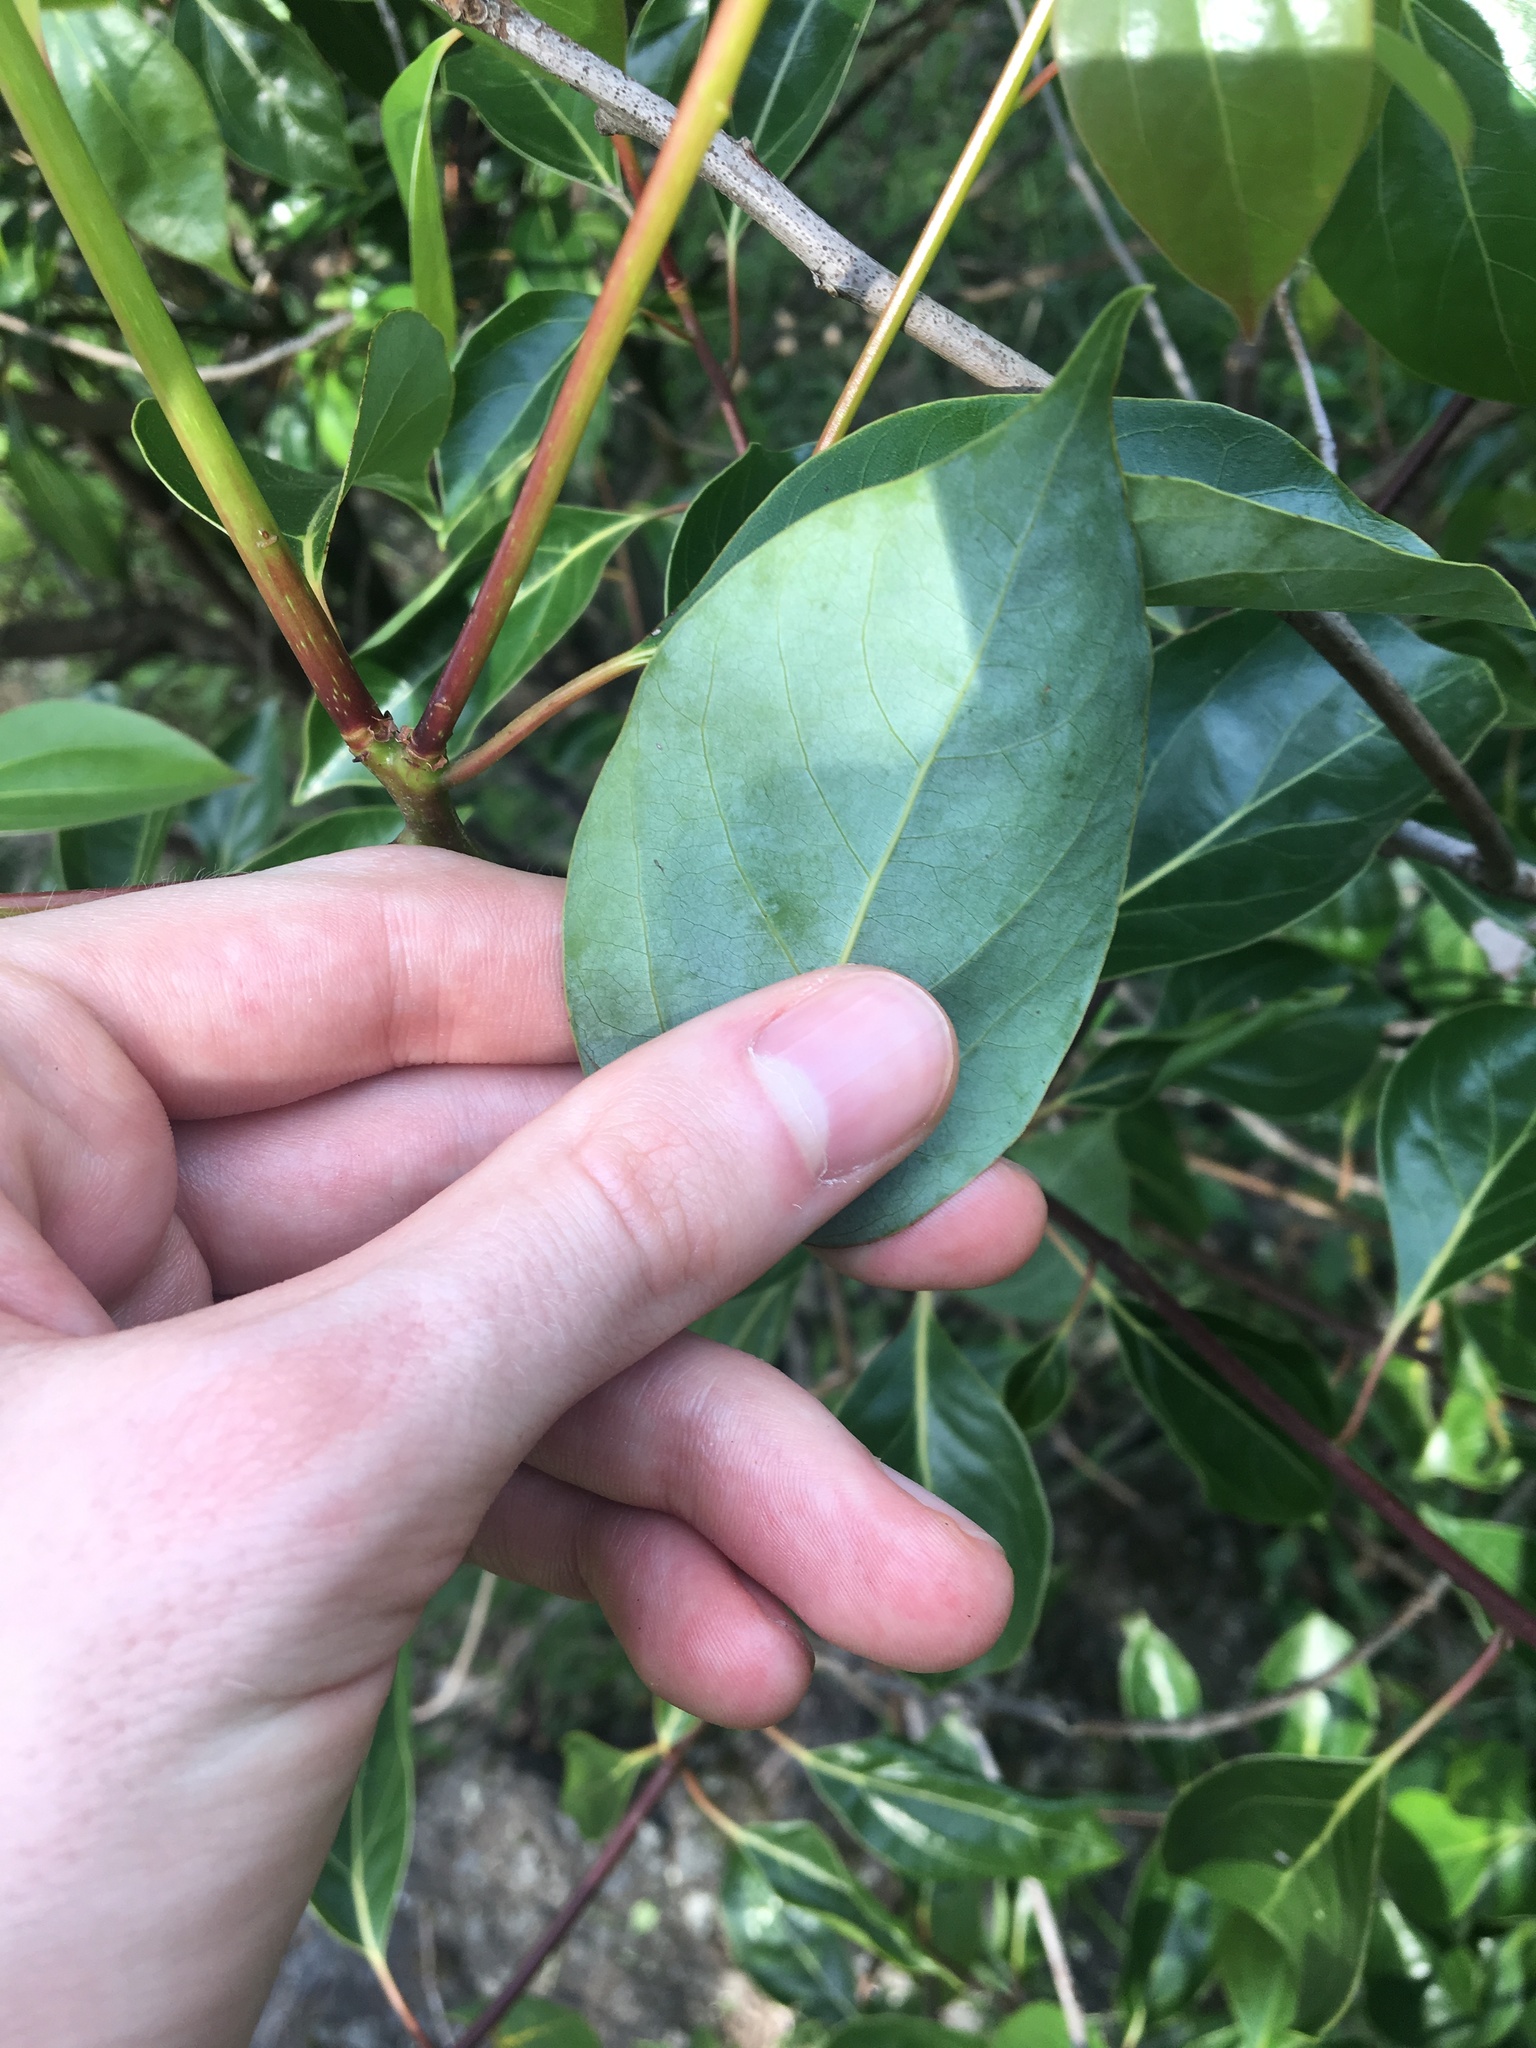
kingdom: Plantae
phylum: Tracheophyta
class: Magnoliopsida
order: Laurales
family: Lauraceae
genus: Cinnamomum
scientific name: Cinnamomum camphora
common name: Camphortree
